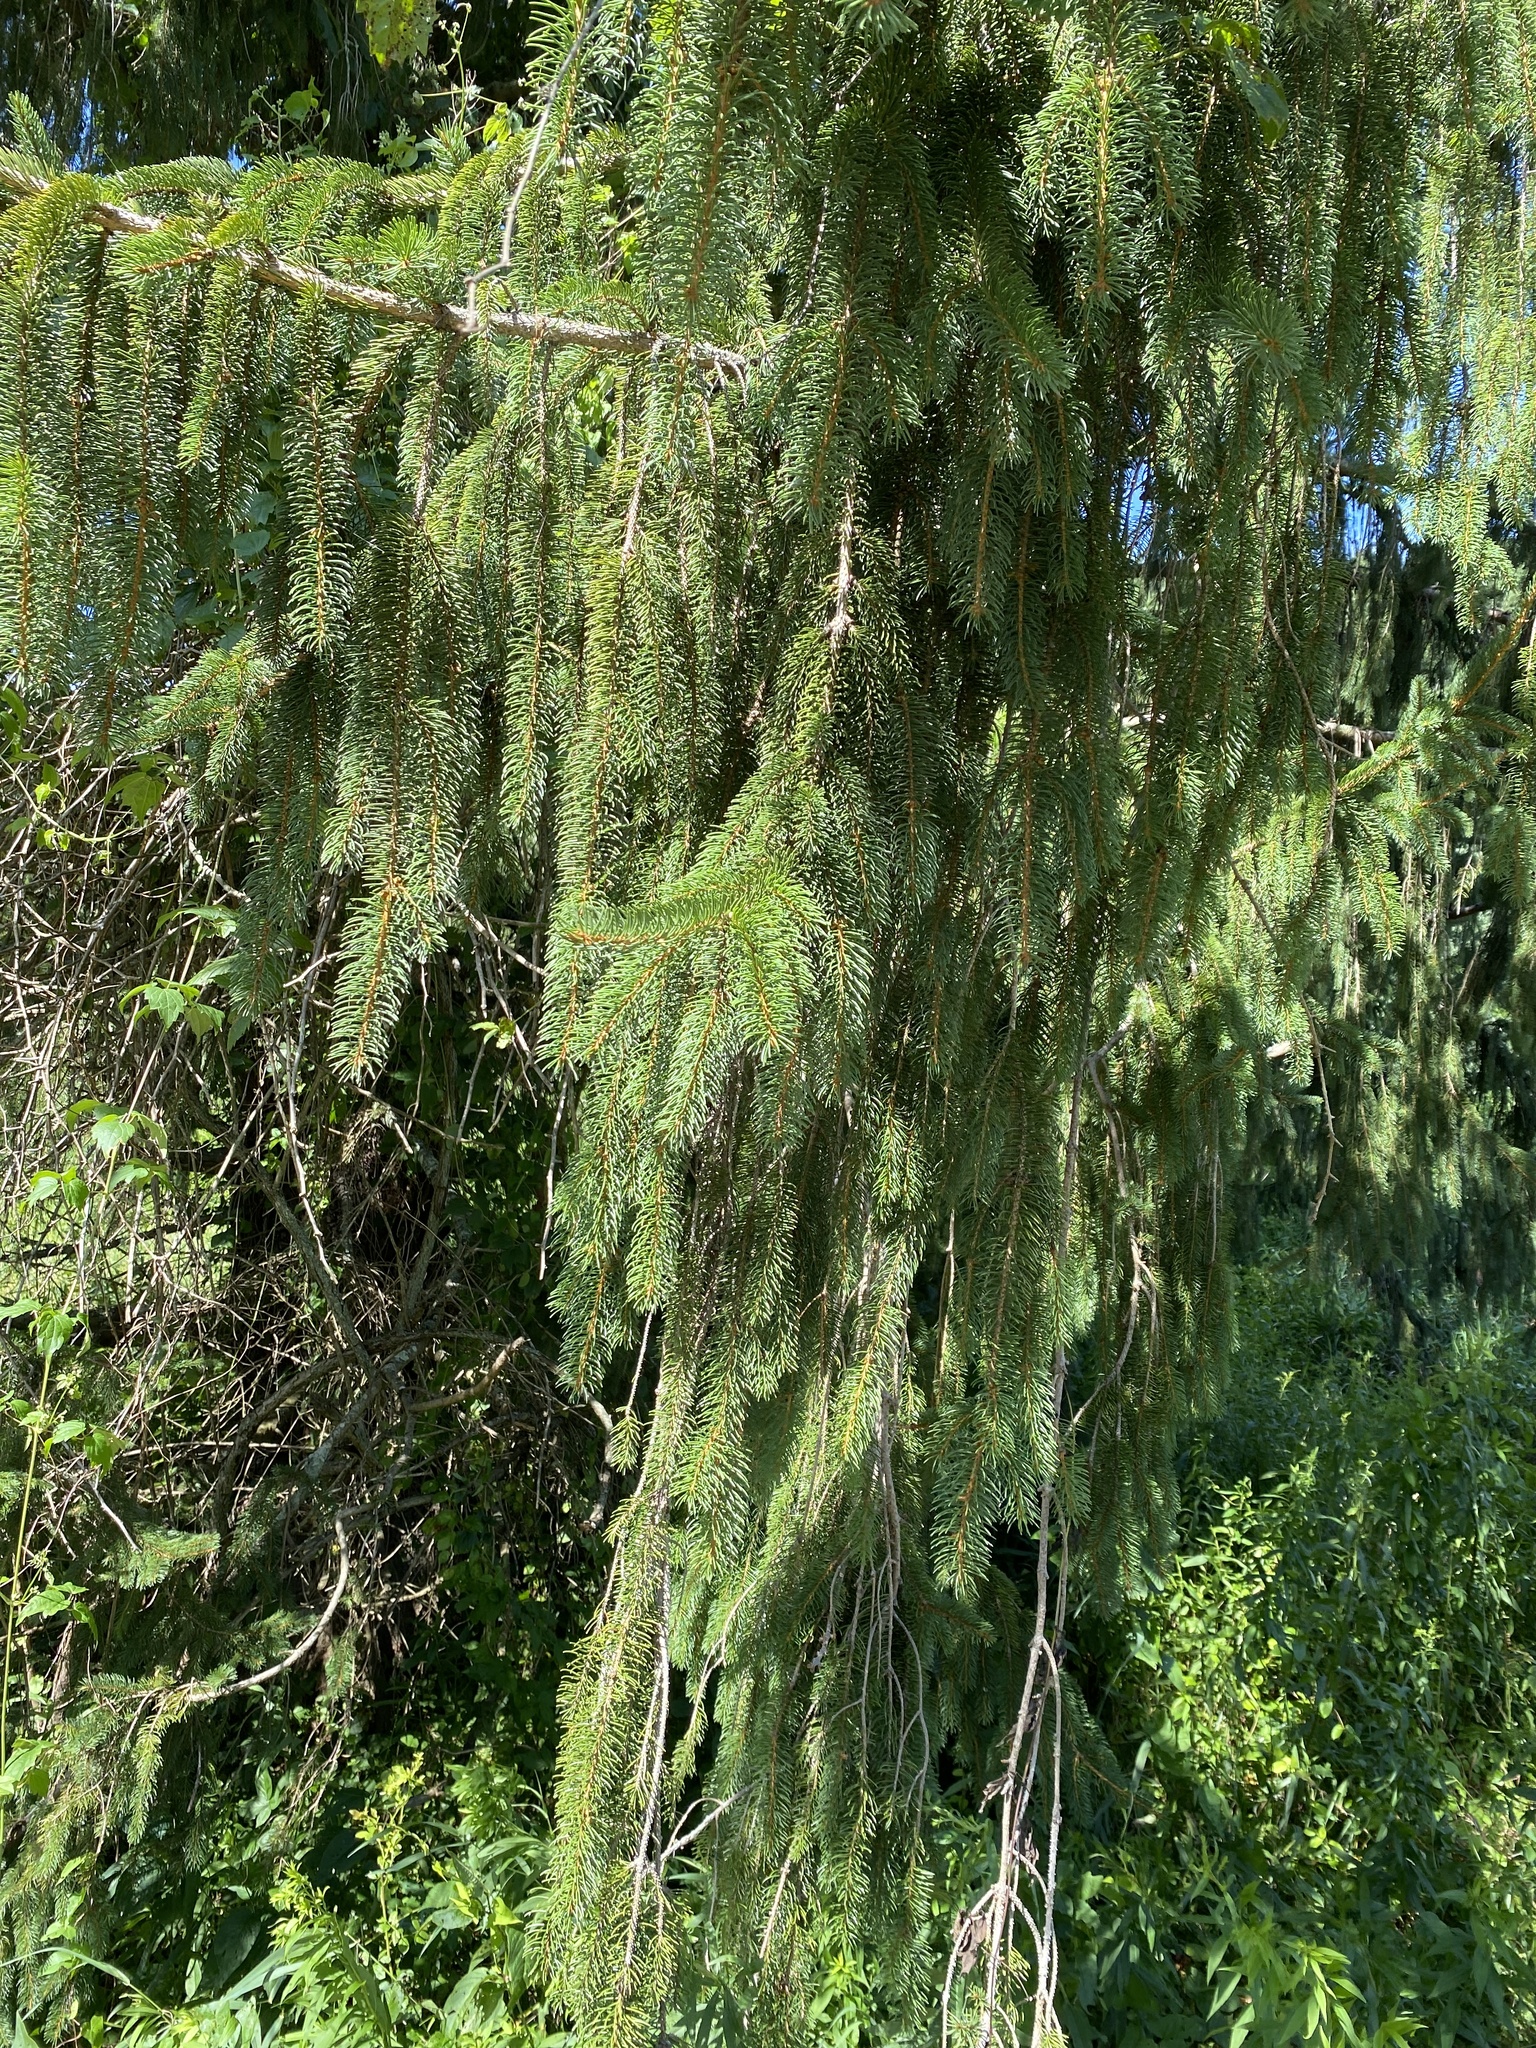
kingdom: Plantae
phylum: Tracheophyta
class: Pinopsida
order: Pinales
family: Pinaceae
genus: Picea
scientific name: Picea abies
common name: Norway spruce
